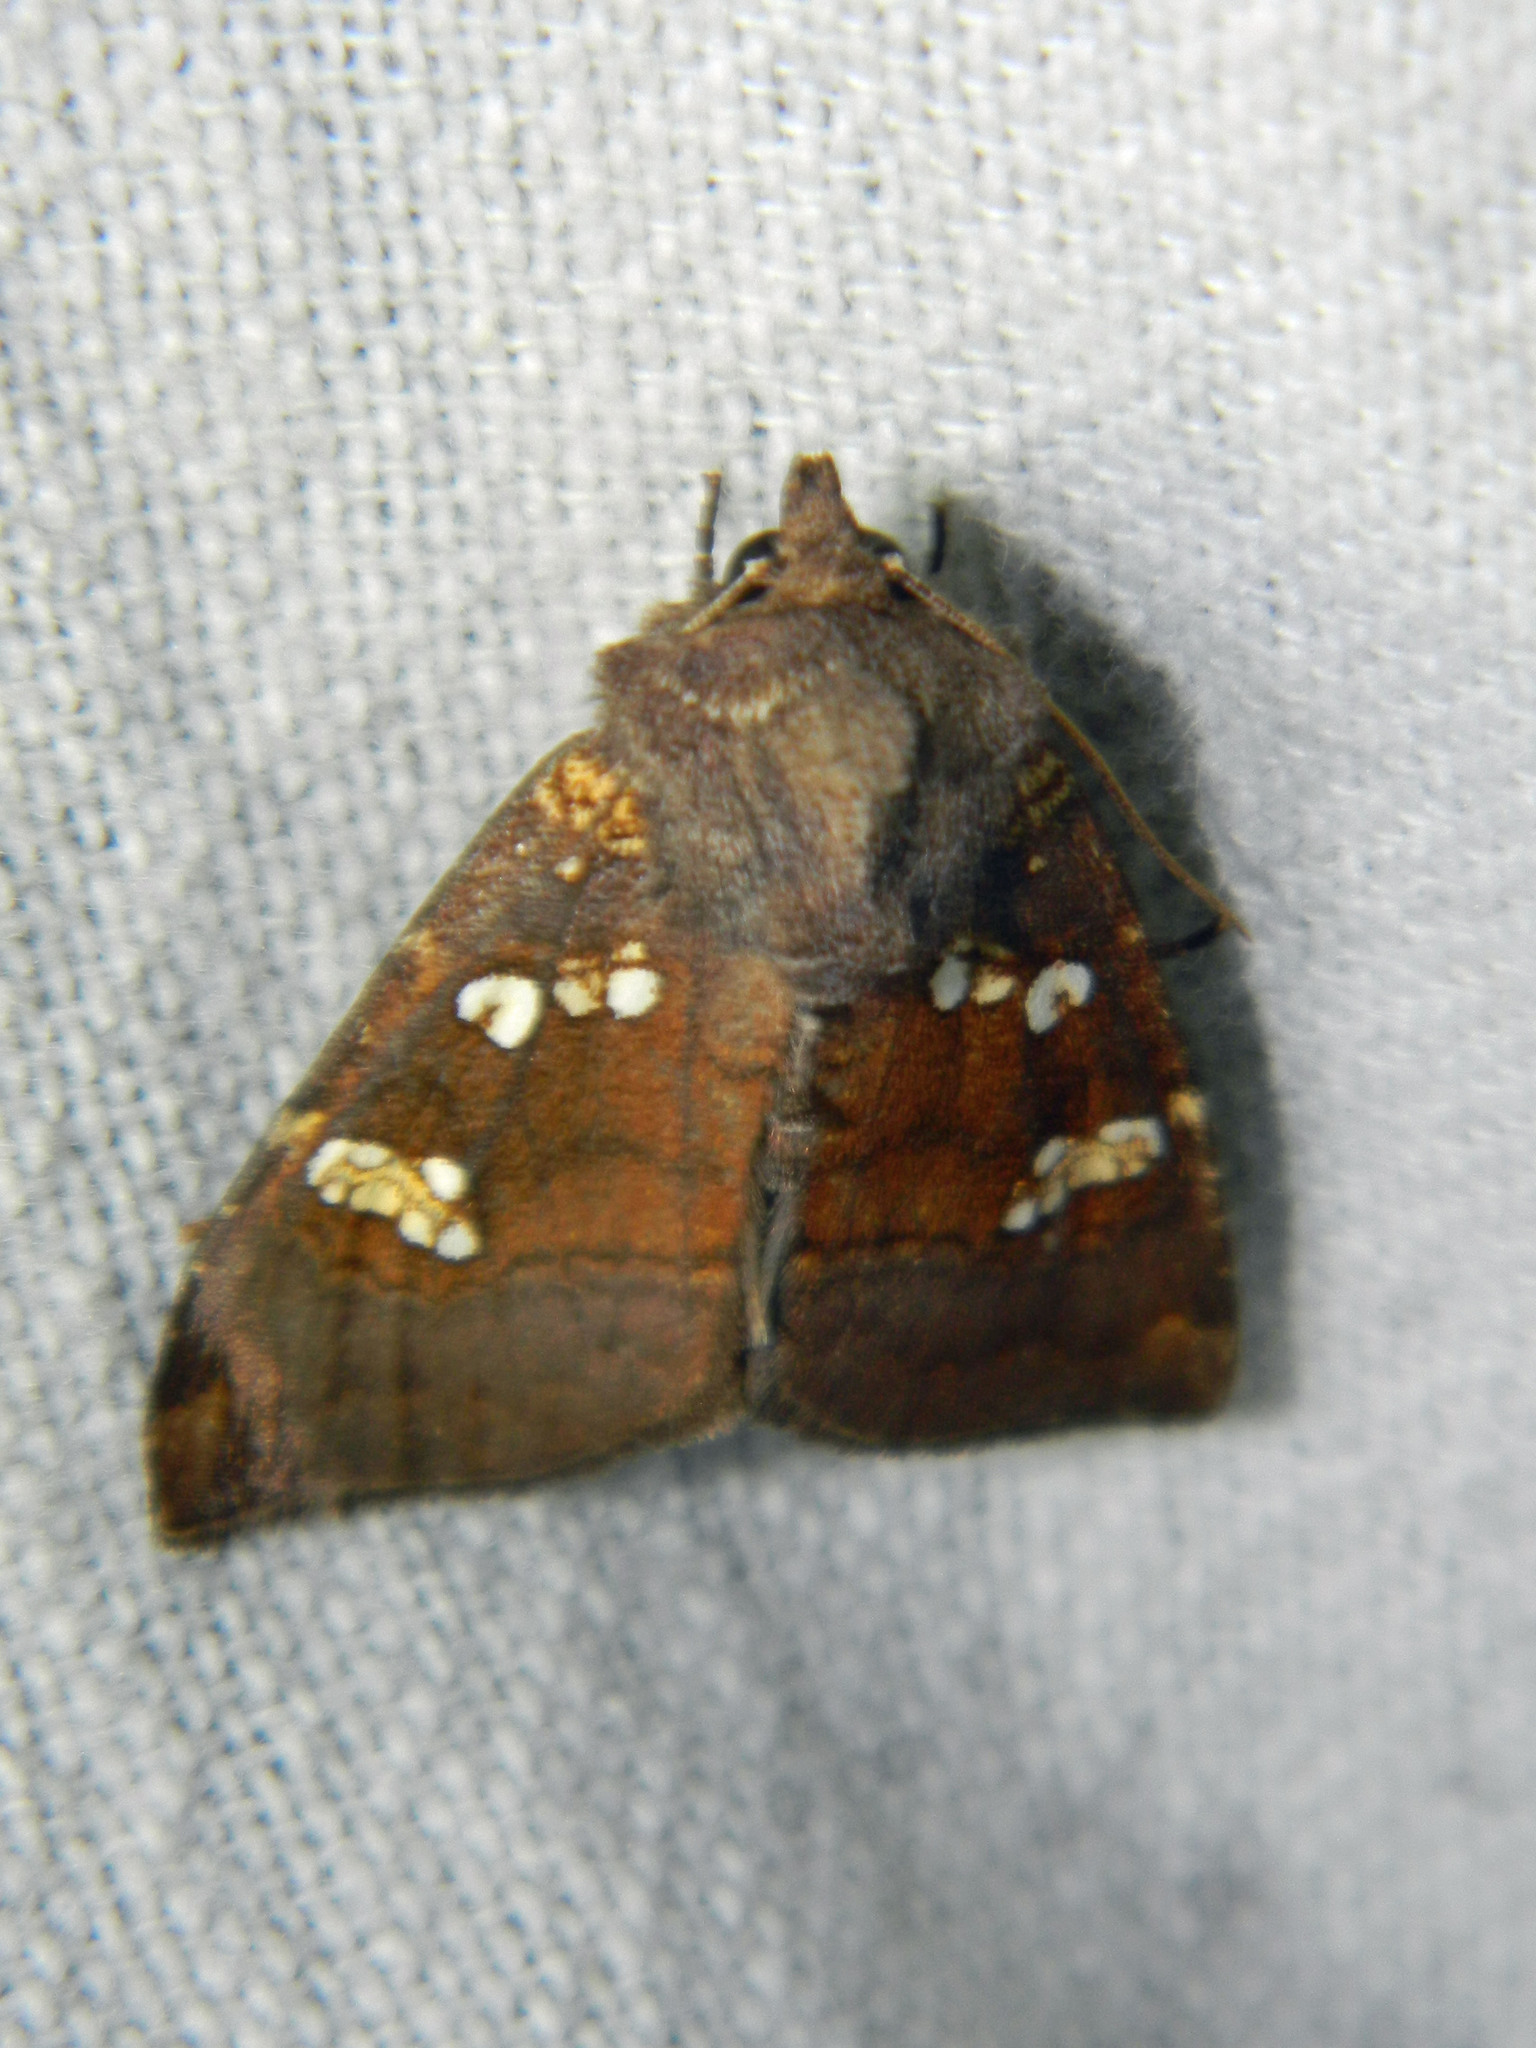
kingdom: Animalia
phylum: Arthropoda
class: Insecta
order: Lepidoptera
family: Noctuidae
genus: Papaipema
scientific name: Papaipema unimoda
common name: Meadow rue borer moth
